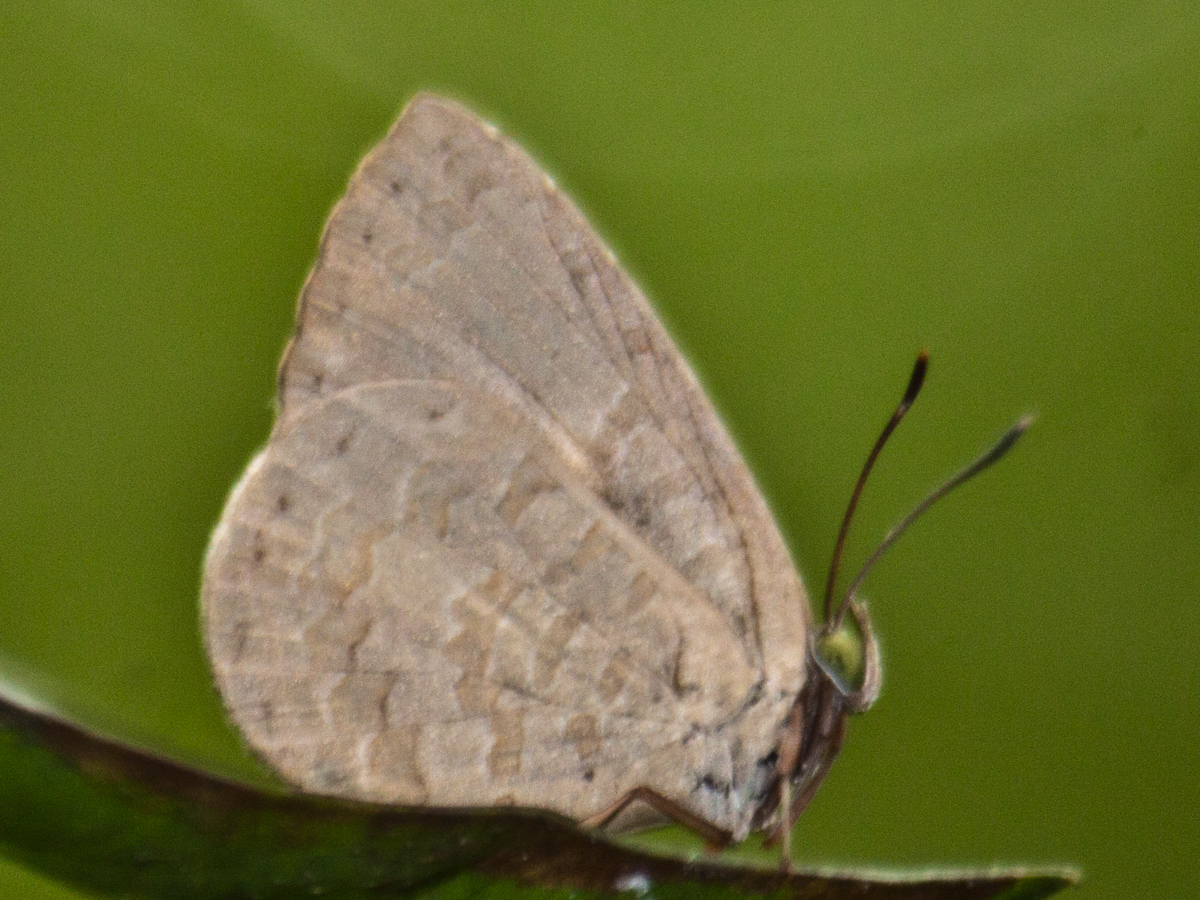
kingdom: Animalia
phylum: Arthropoda
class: Insecta
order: Lepidoptera
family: Lycaenidae
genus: Miletus
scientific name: Miletus chinensis
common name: Common brownie
